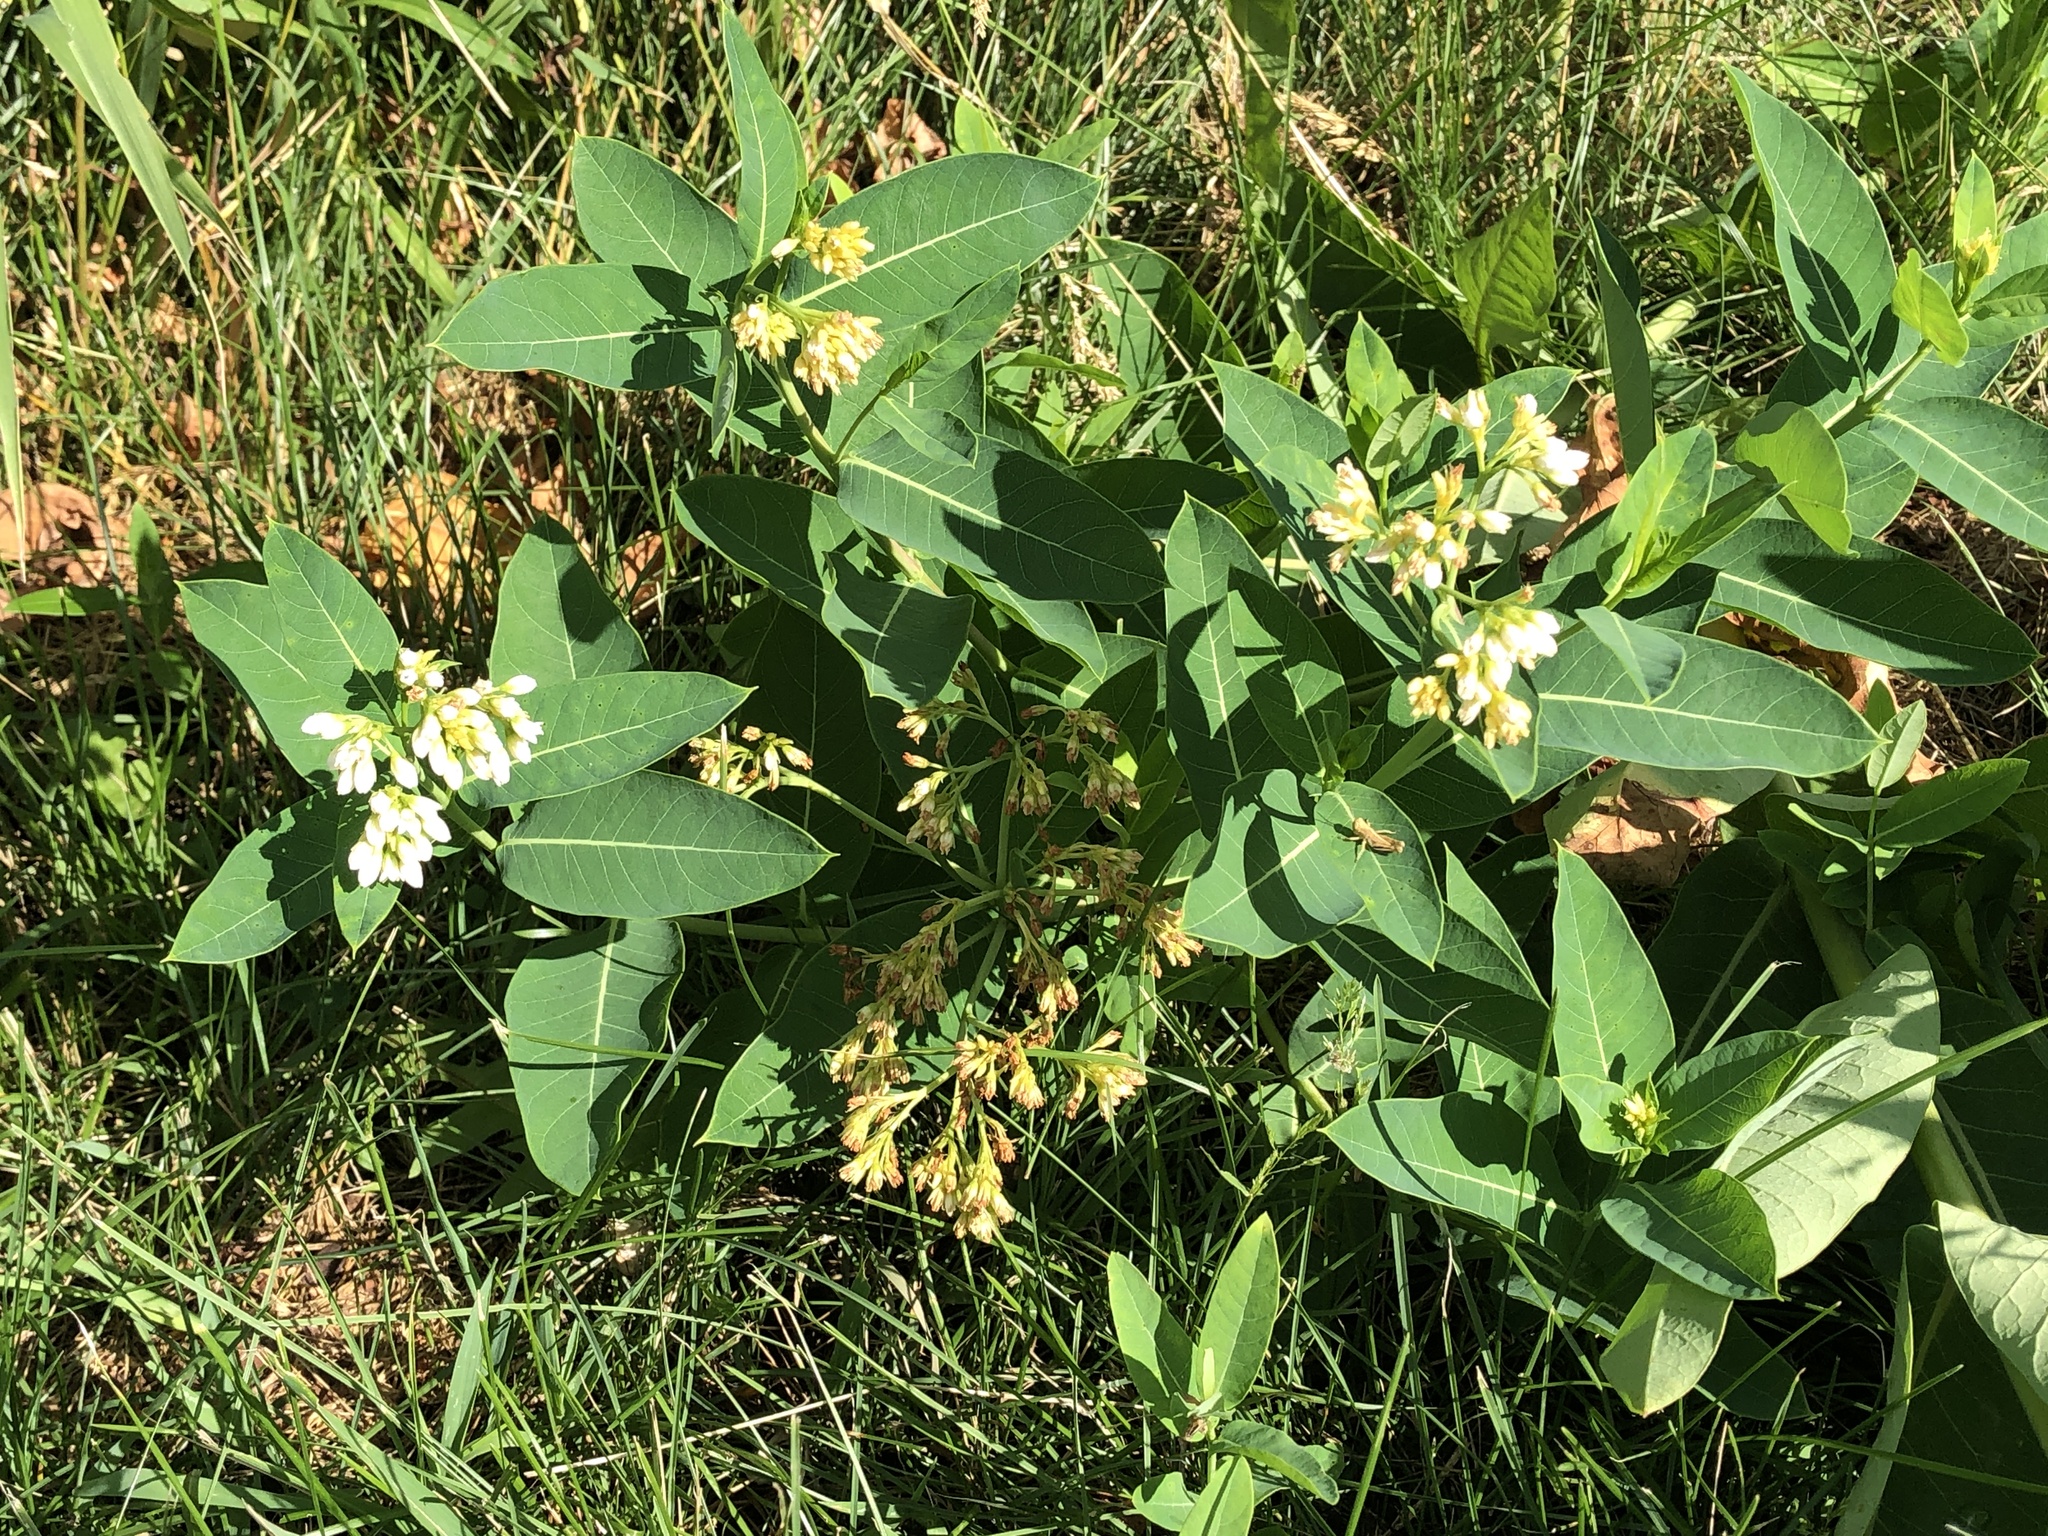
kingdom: Plantae
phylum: Tracheophyta
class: Magnoliopsida
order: Gentianales
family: Apocynaceae
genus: Apocynum
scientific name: Apocynum cannabinum
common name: Hemp dogbane
